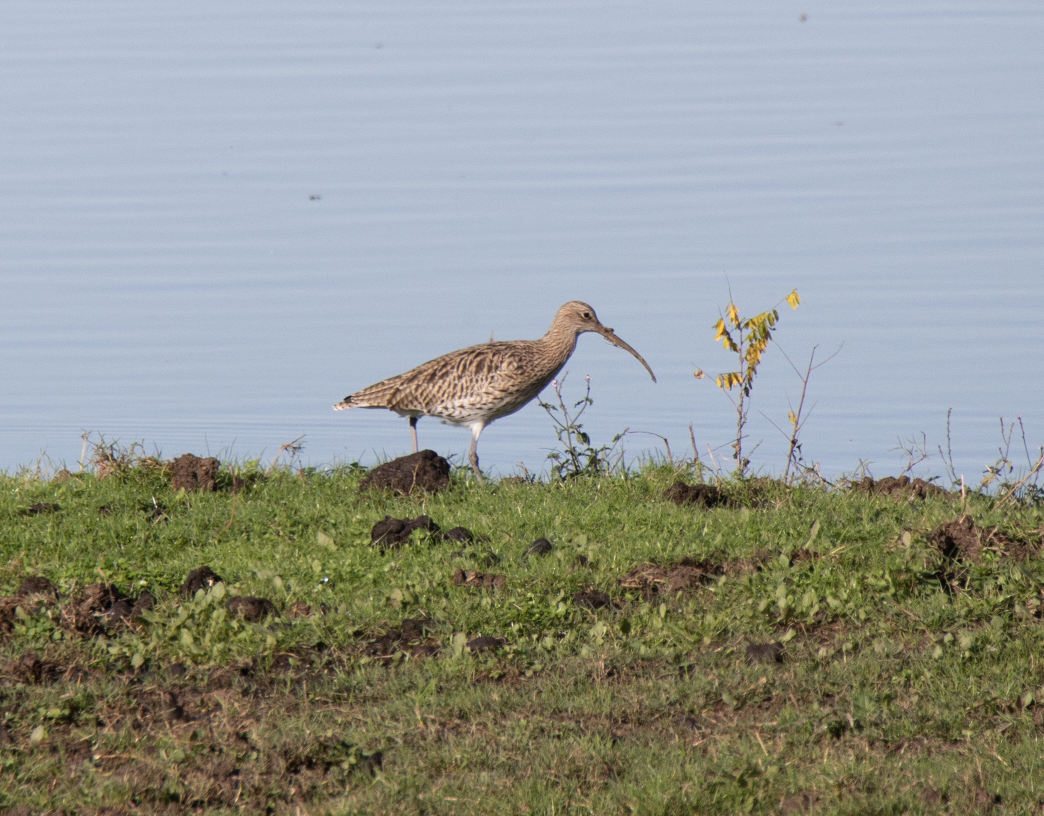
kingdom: Animalia
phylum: Chordata
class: Aves
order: Charadriiformes
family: Scolopacidae
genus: Numenius
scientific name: Numenius arquata
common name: Eurasian curlew
